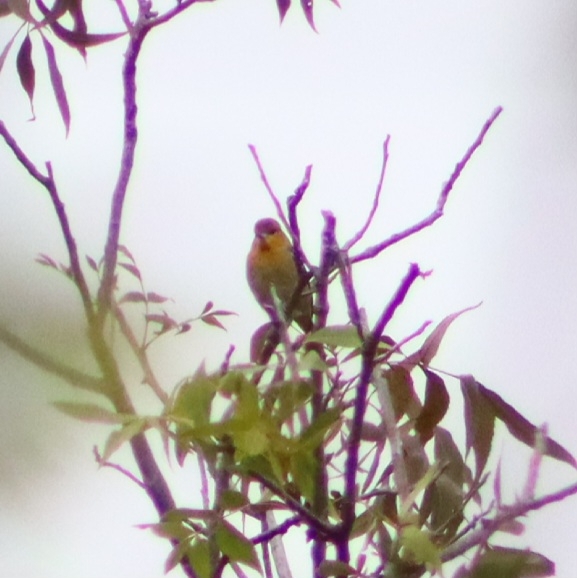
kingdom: Animalia
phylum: Chordata
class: Aves
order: Passeriformes
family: Icteridae
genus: Icterus
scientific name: Icterus bullockii
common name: Bullock's oriole
